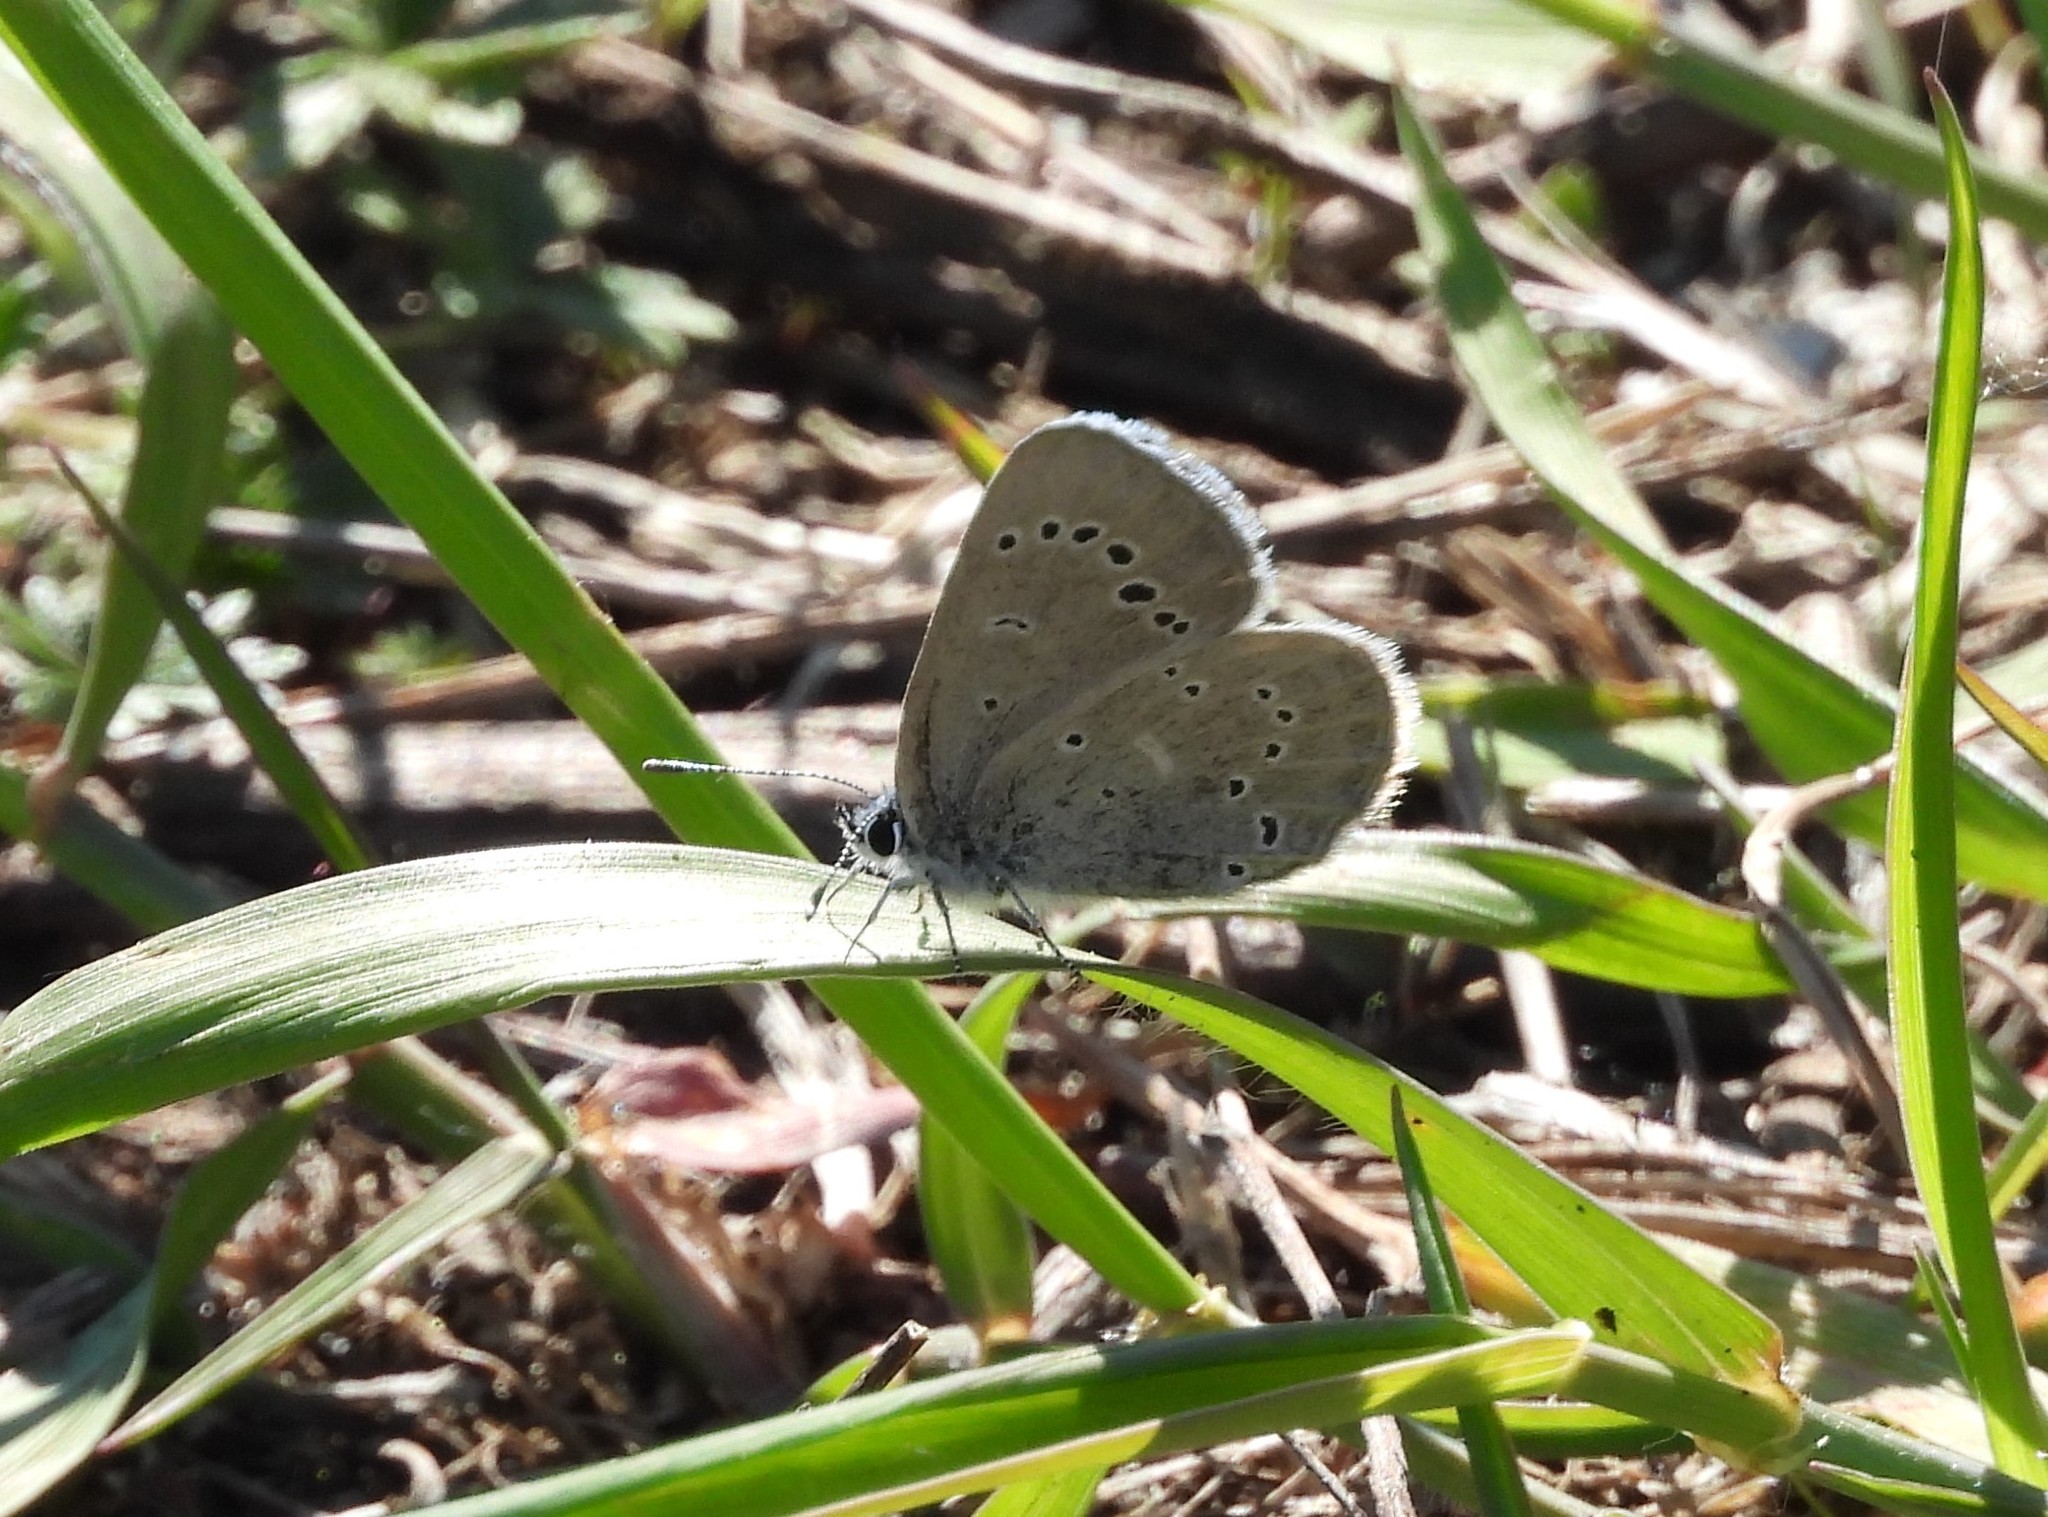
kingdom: Animalia
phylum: Arthropoda
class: Insecta
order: Lepidoptera
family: Lycaenidae
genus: Glaucopsyche
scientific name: Glaucopsyche lygdamus
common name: Silvery blue
